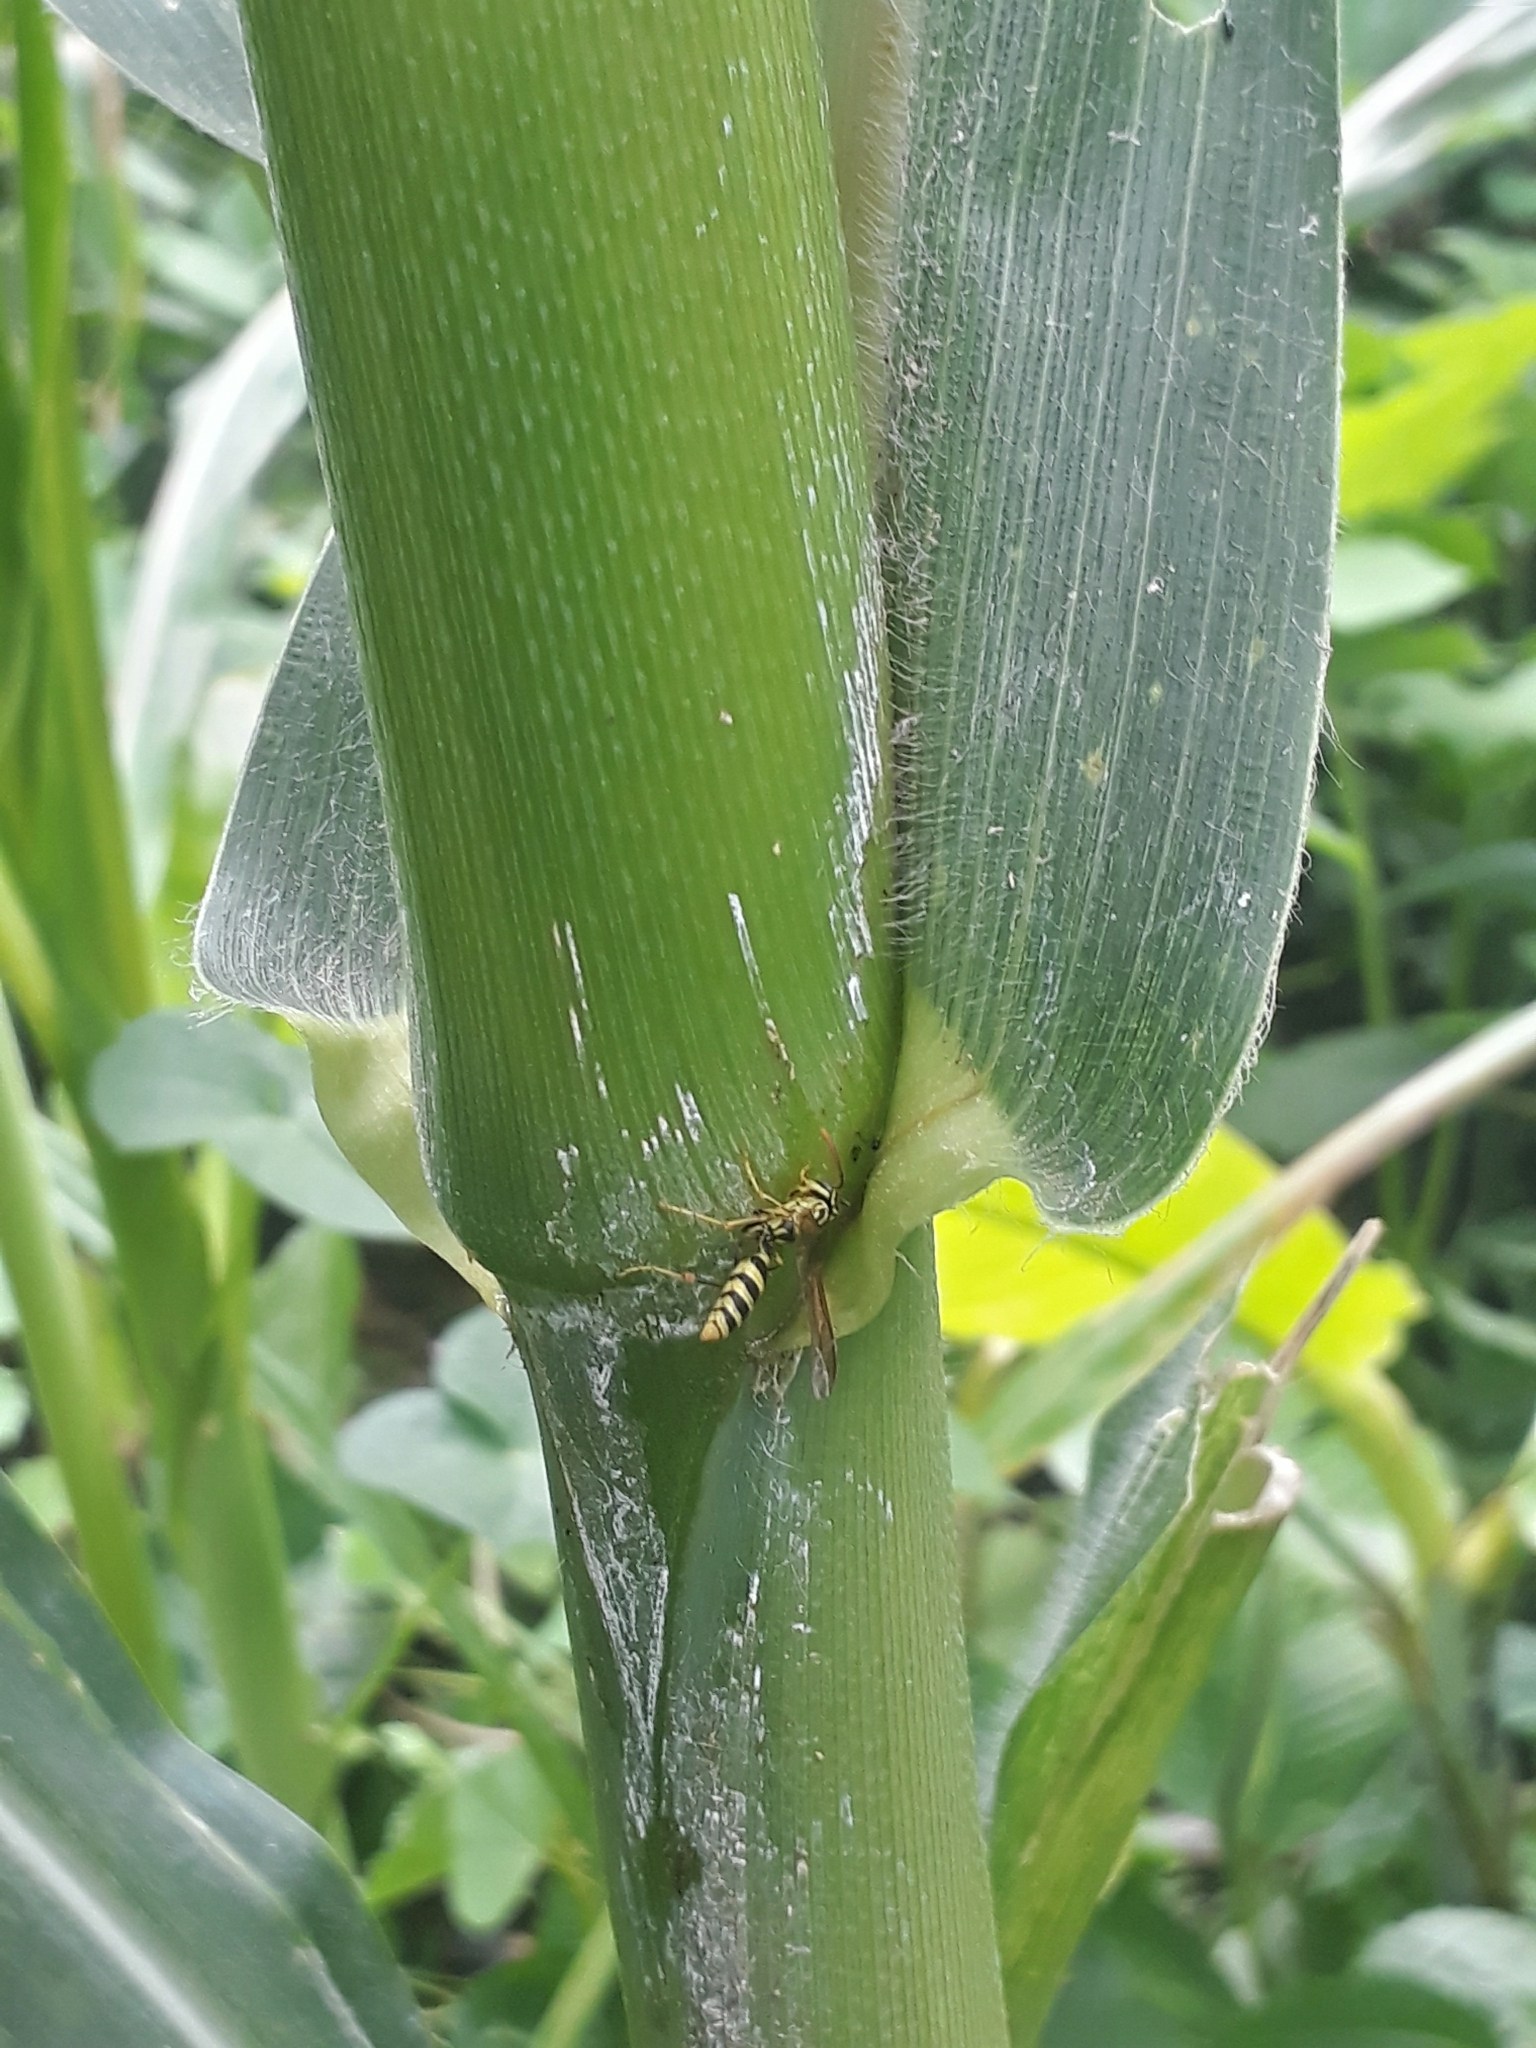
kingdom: Animalia
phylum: Arthropoda
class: Insecta
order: Hymenoptera
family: Vespidae
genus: Agelaia
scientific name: Agelaia areata
